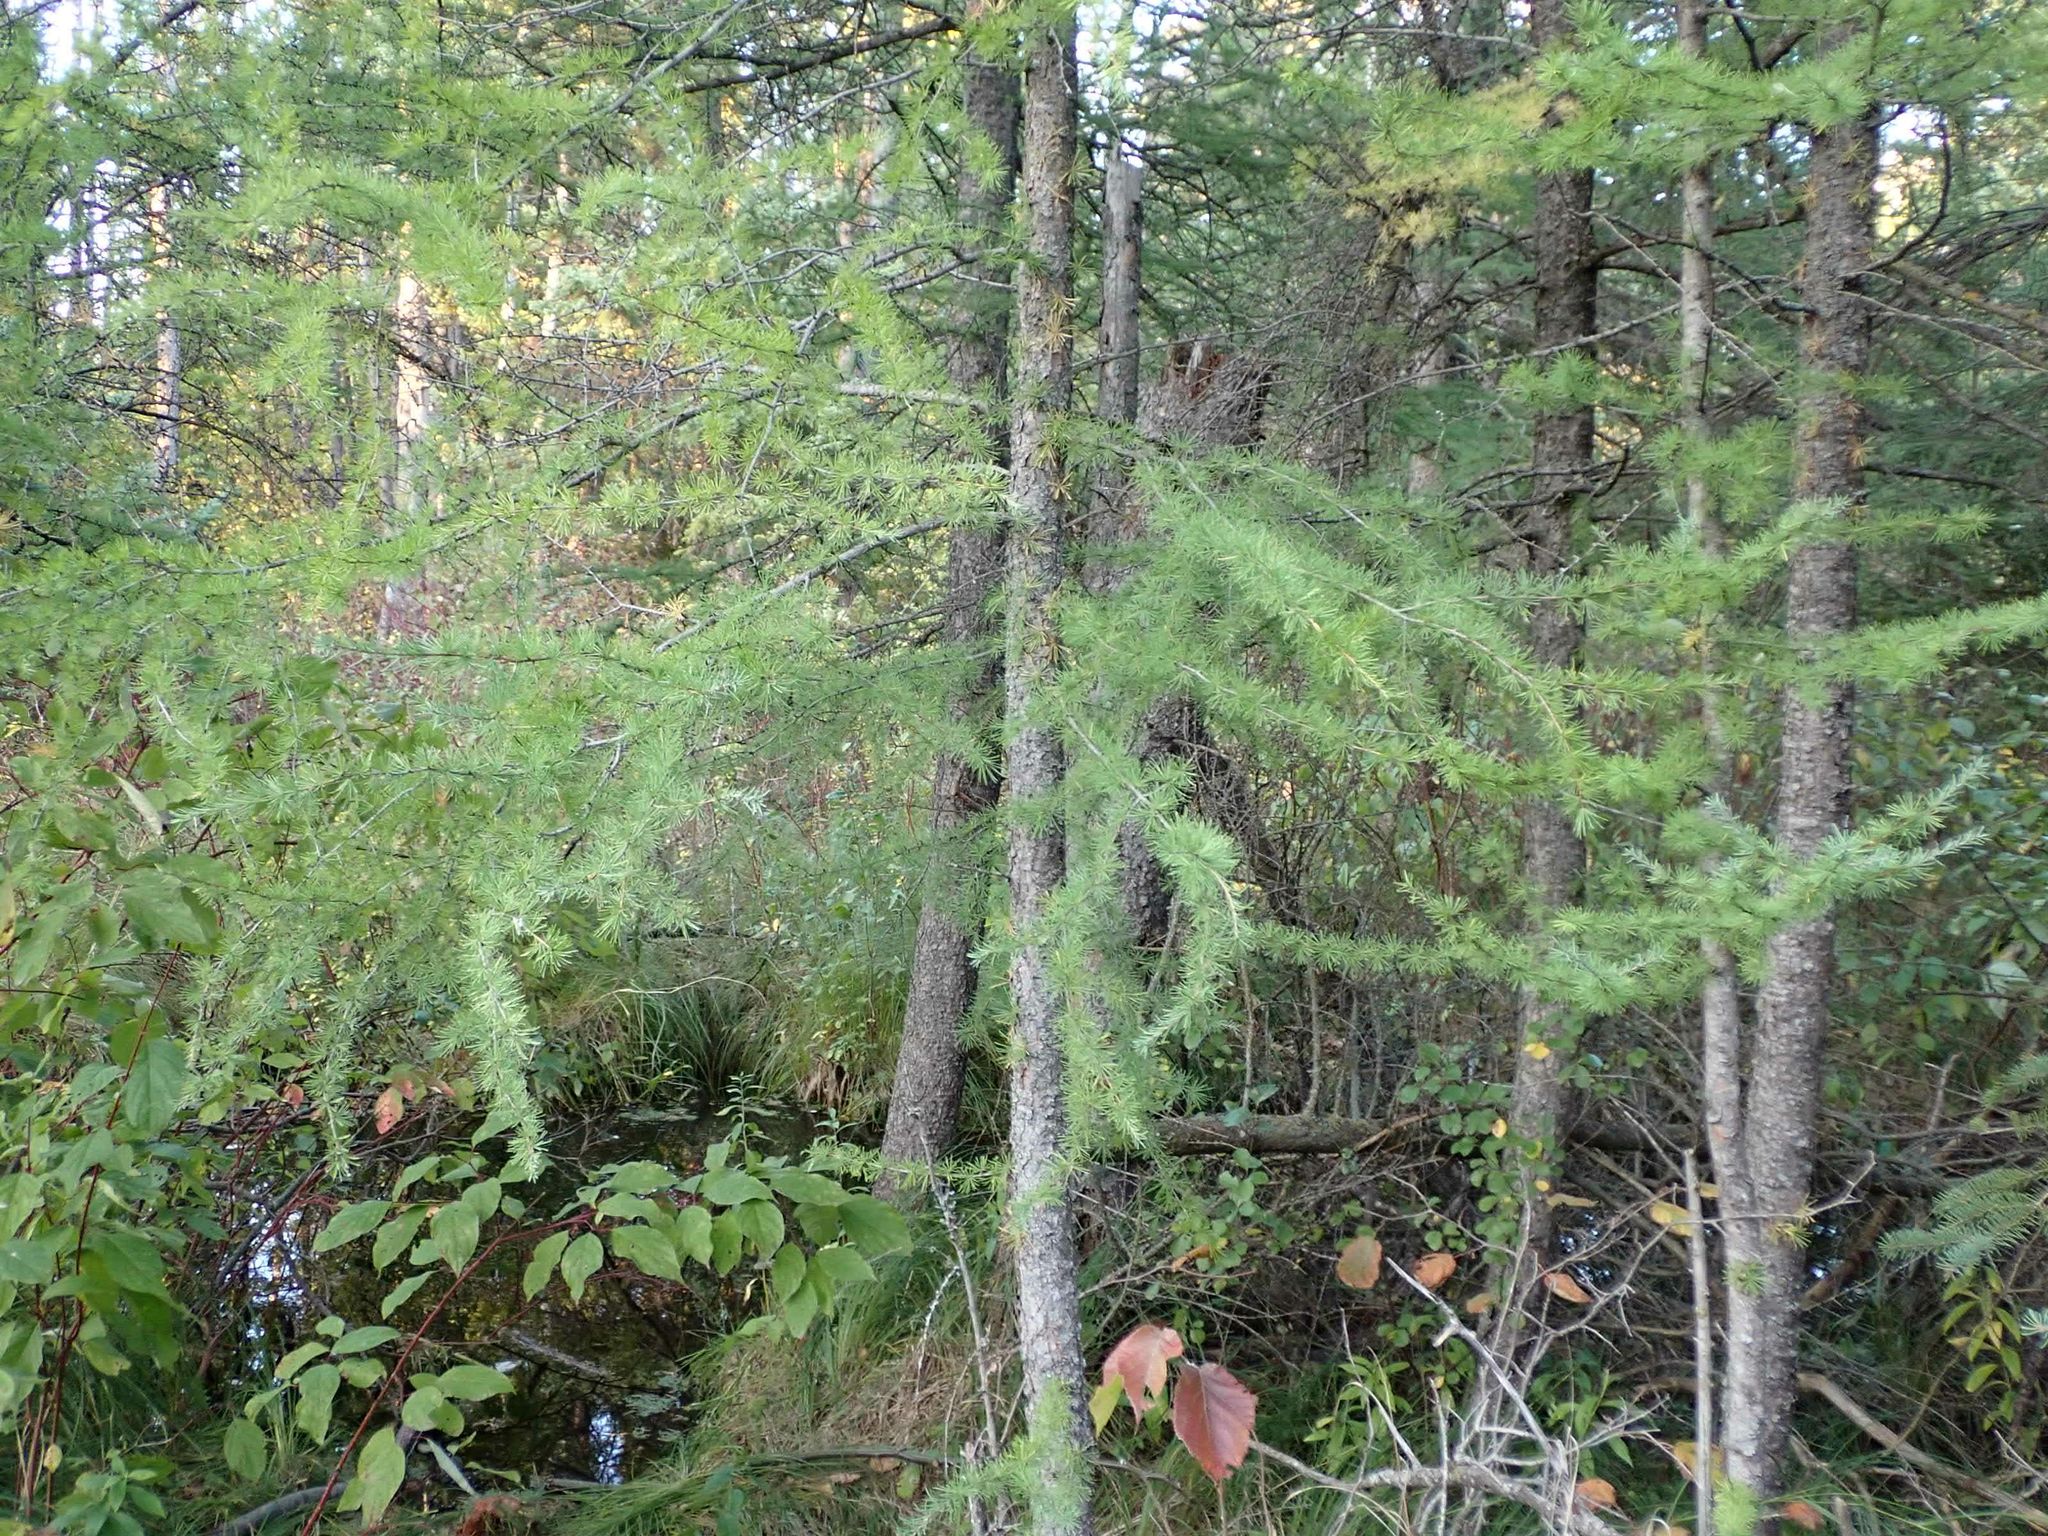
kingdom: Plantae
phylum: Tracheophyta
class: Pinopsida
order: Pinales
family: Pinaceae
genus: Larix
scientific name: Larix laricina
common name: American larch
